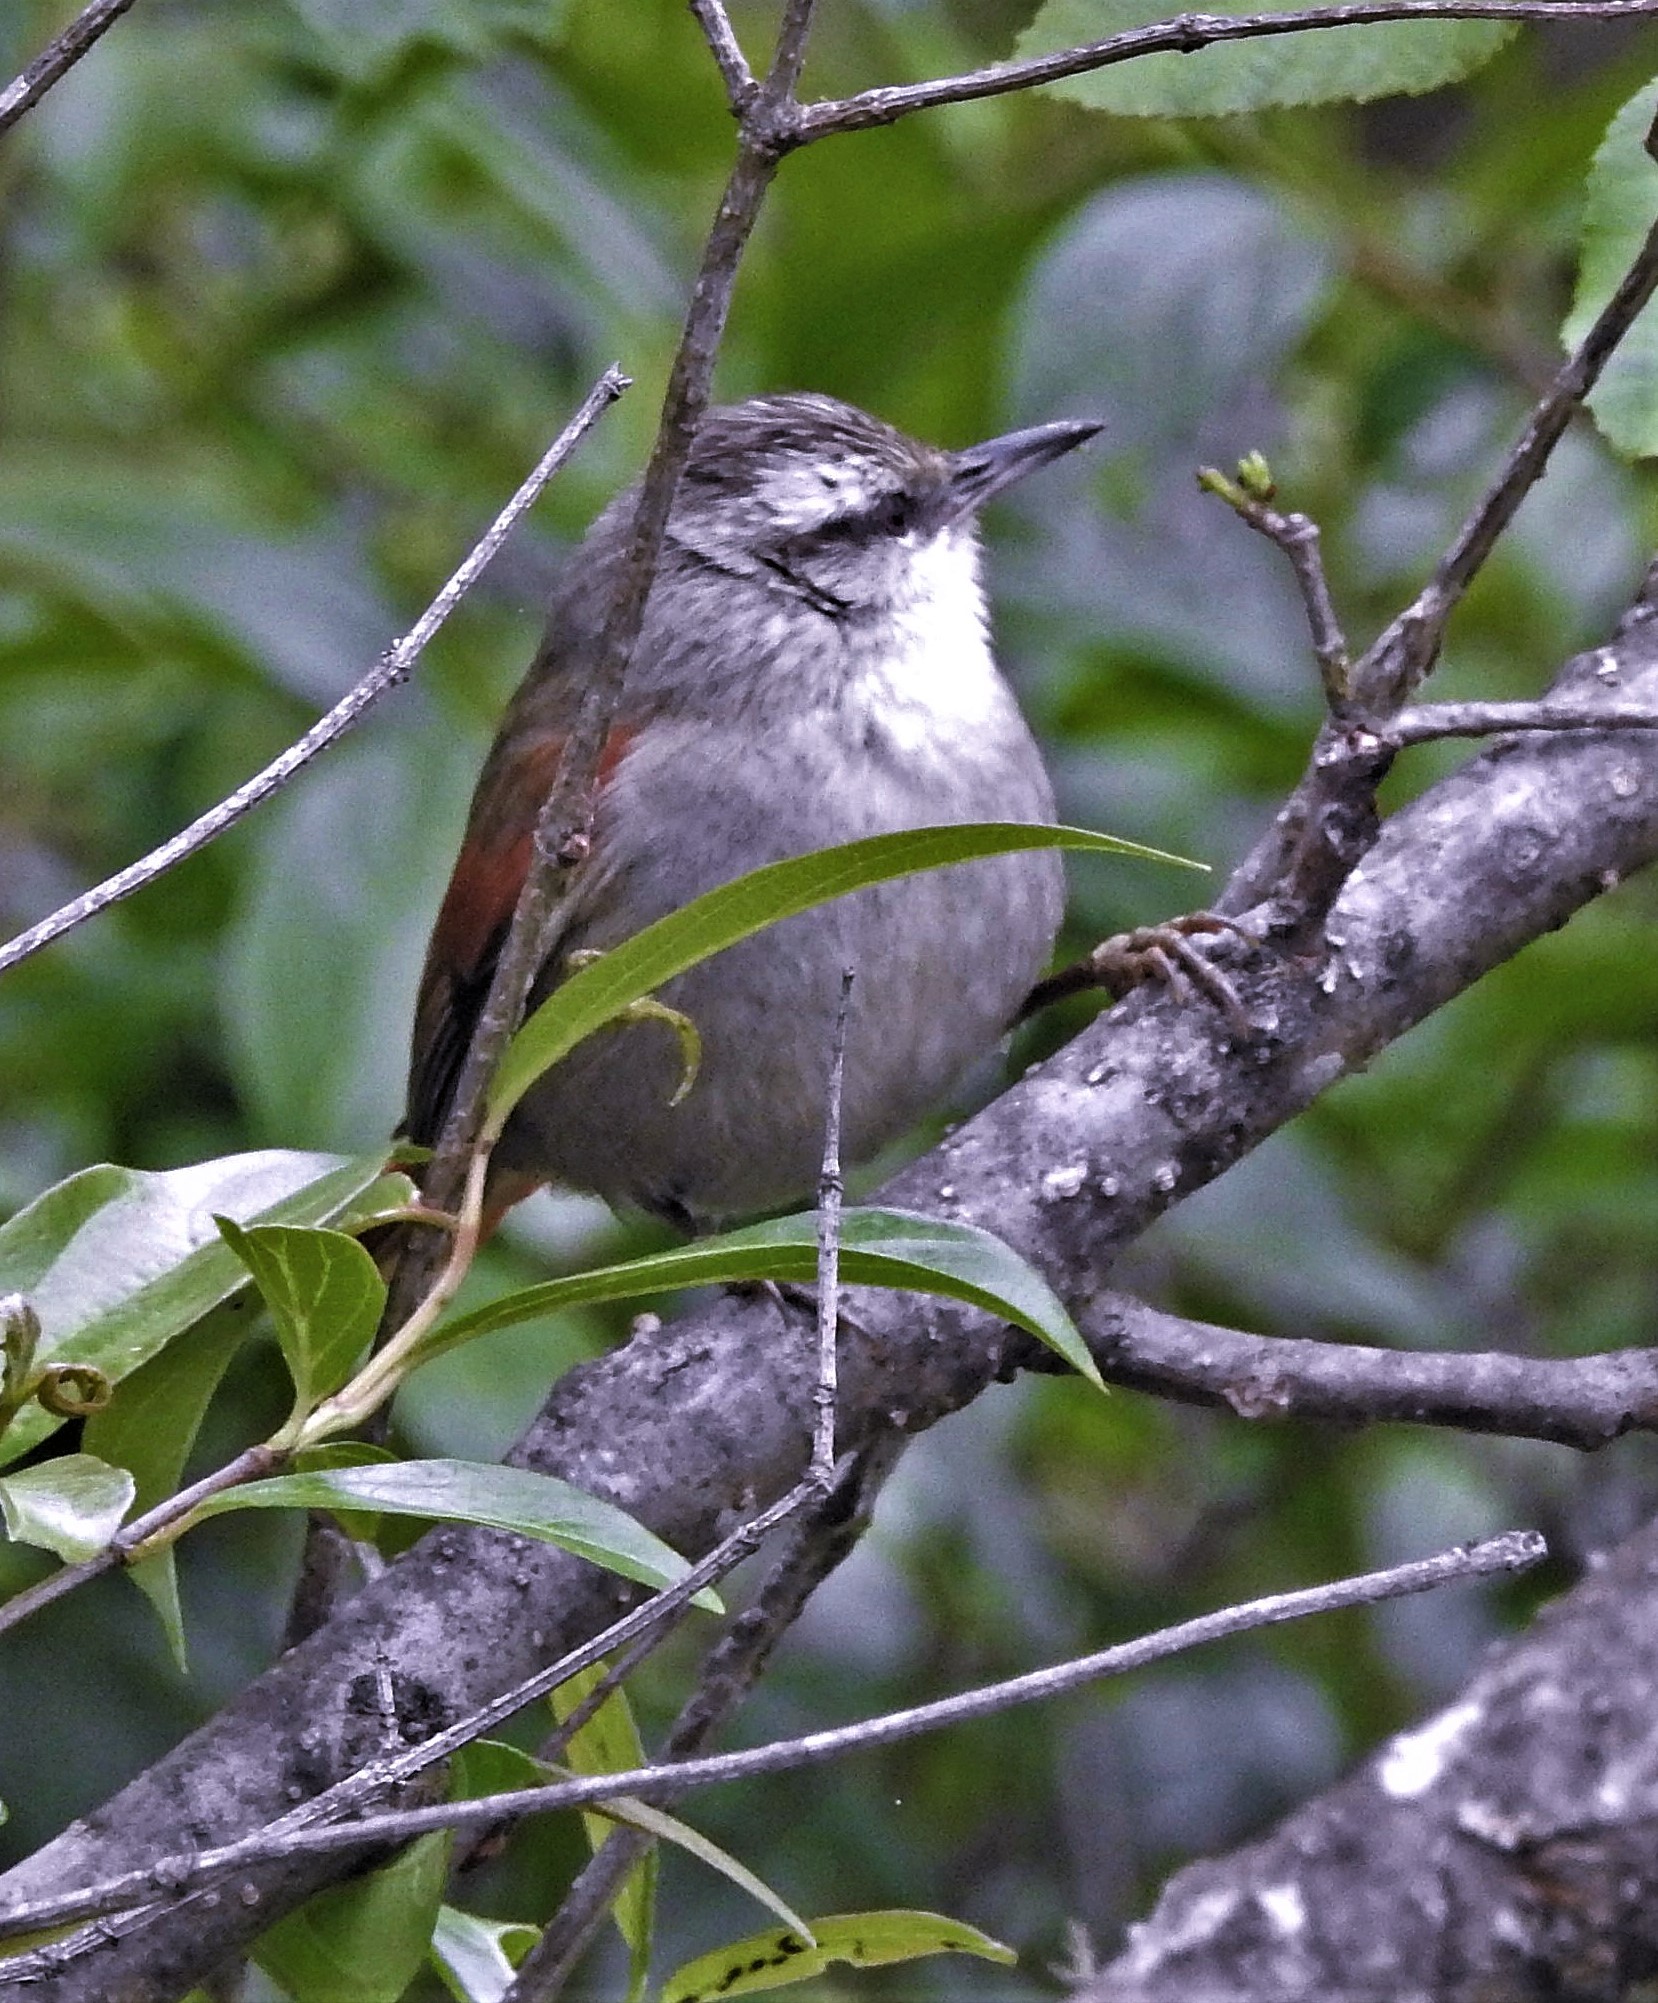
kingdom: Animalia
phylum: Chordata
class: Aves
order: Passeriformes
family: Furnariidae
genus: Cranioleuca
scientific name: Cranioleuca pyrrhophia
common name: Stripe-crowned spinetail
